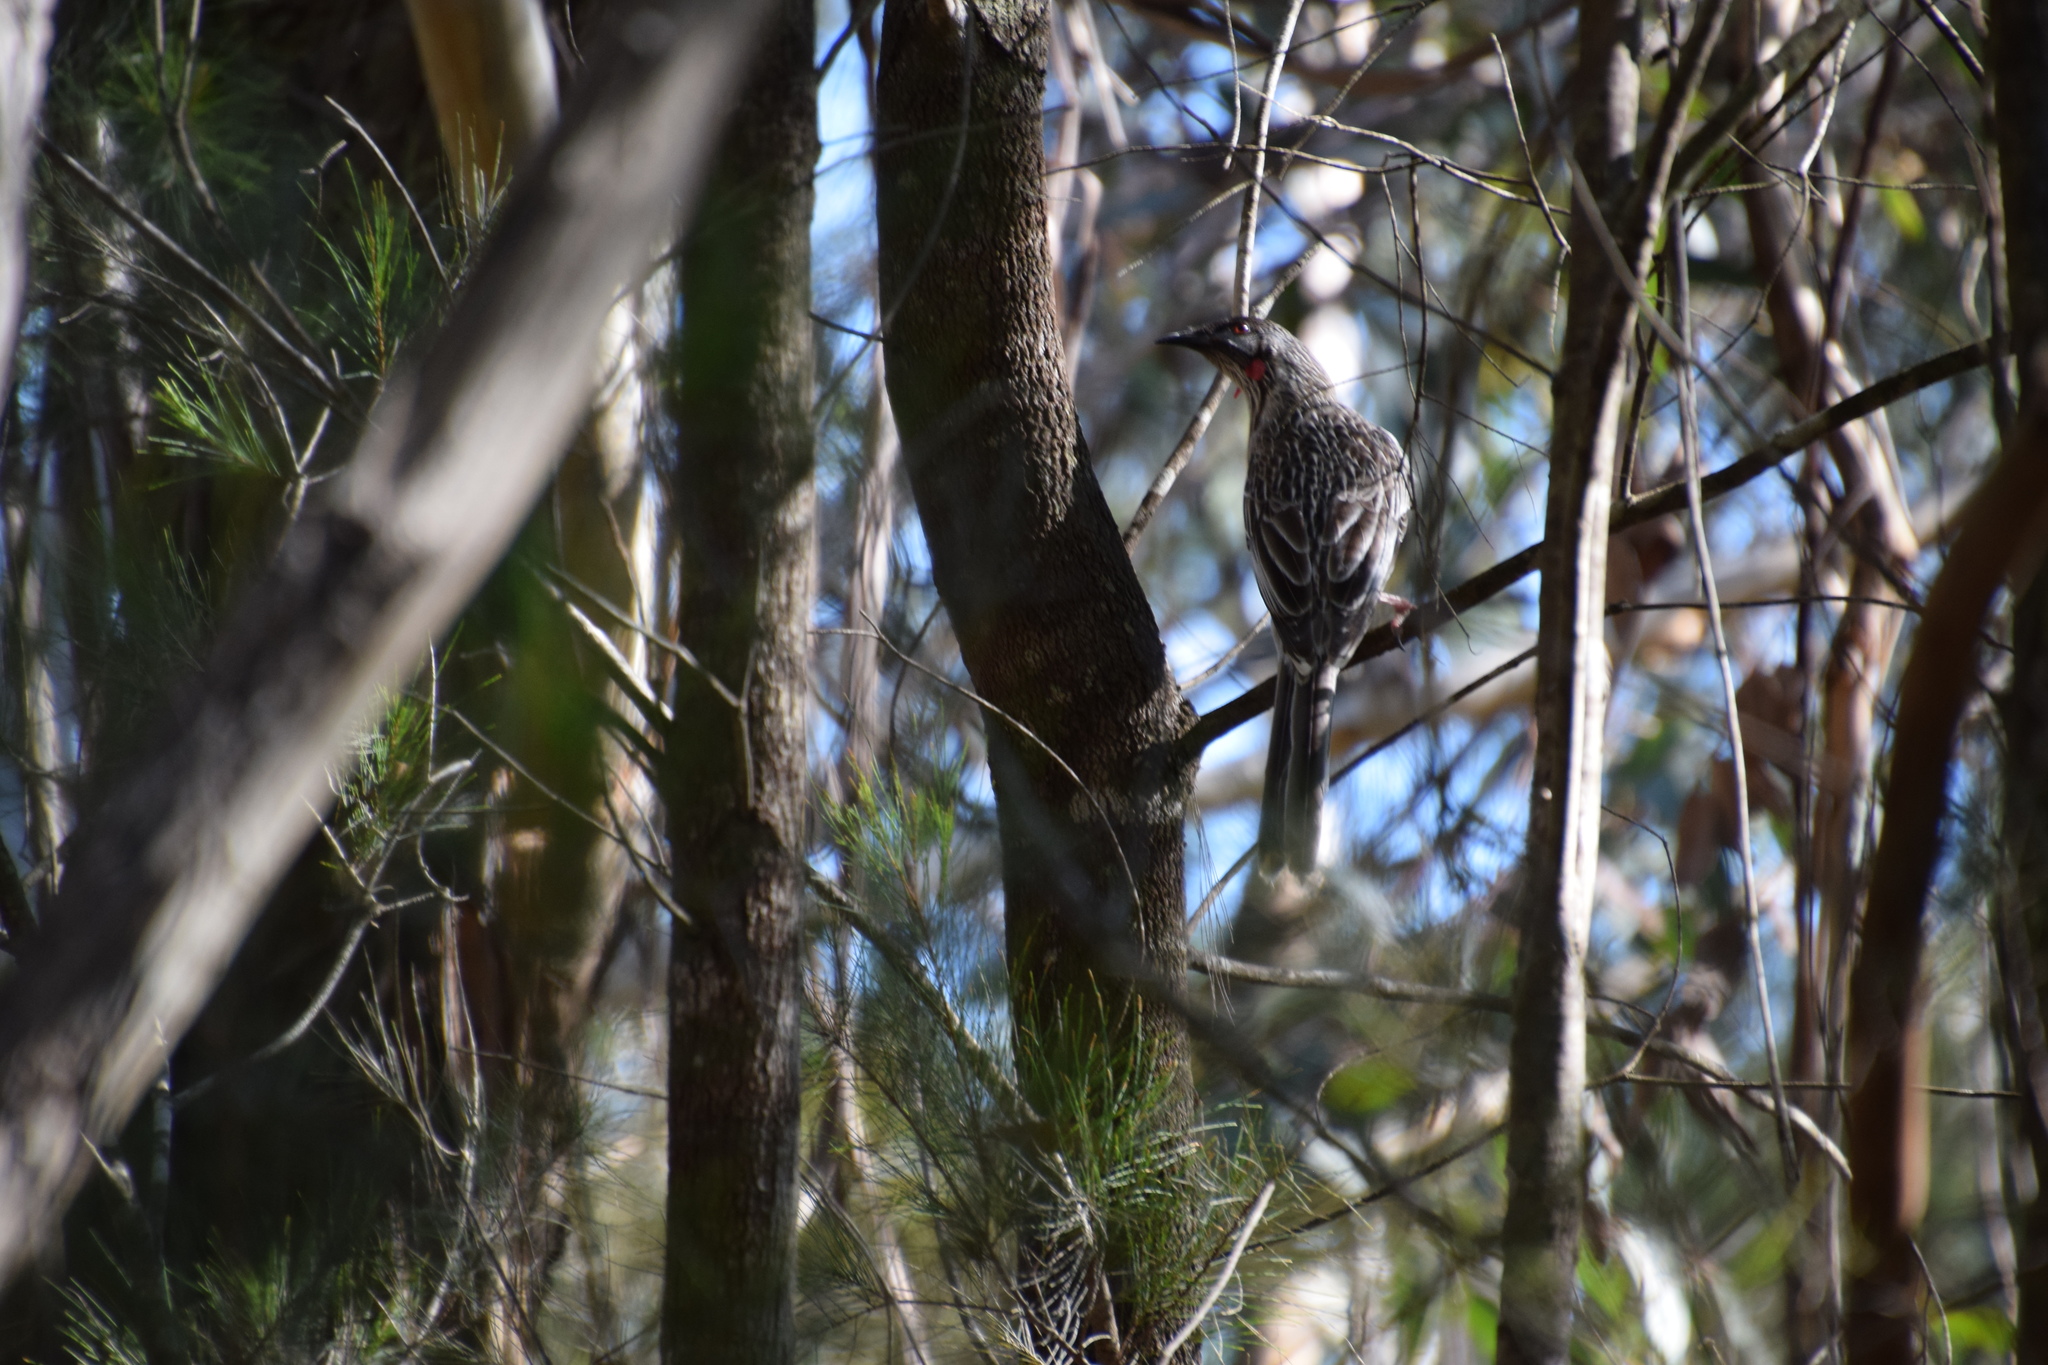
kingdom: Animalia
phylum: Chordata
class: Aves
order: Passeriformes
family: Meliphagidae
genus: Anthochaera
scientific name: Anthochaera carunculata
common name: Red wattlebird
